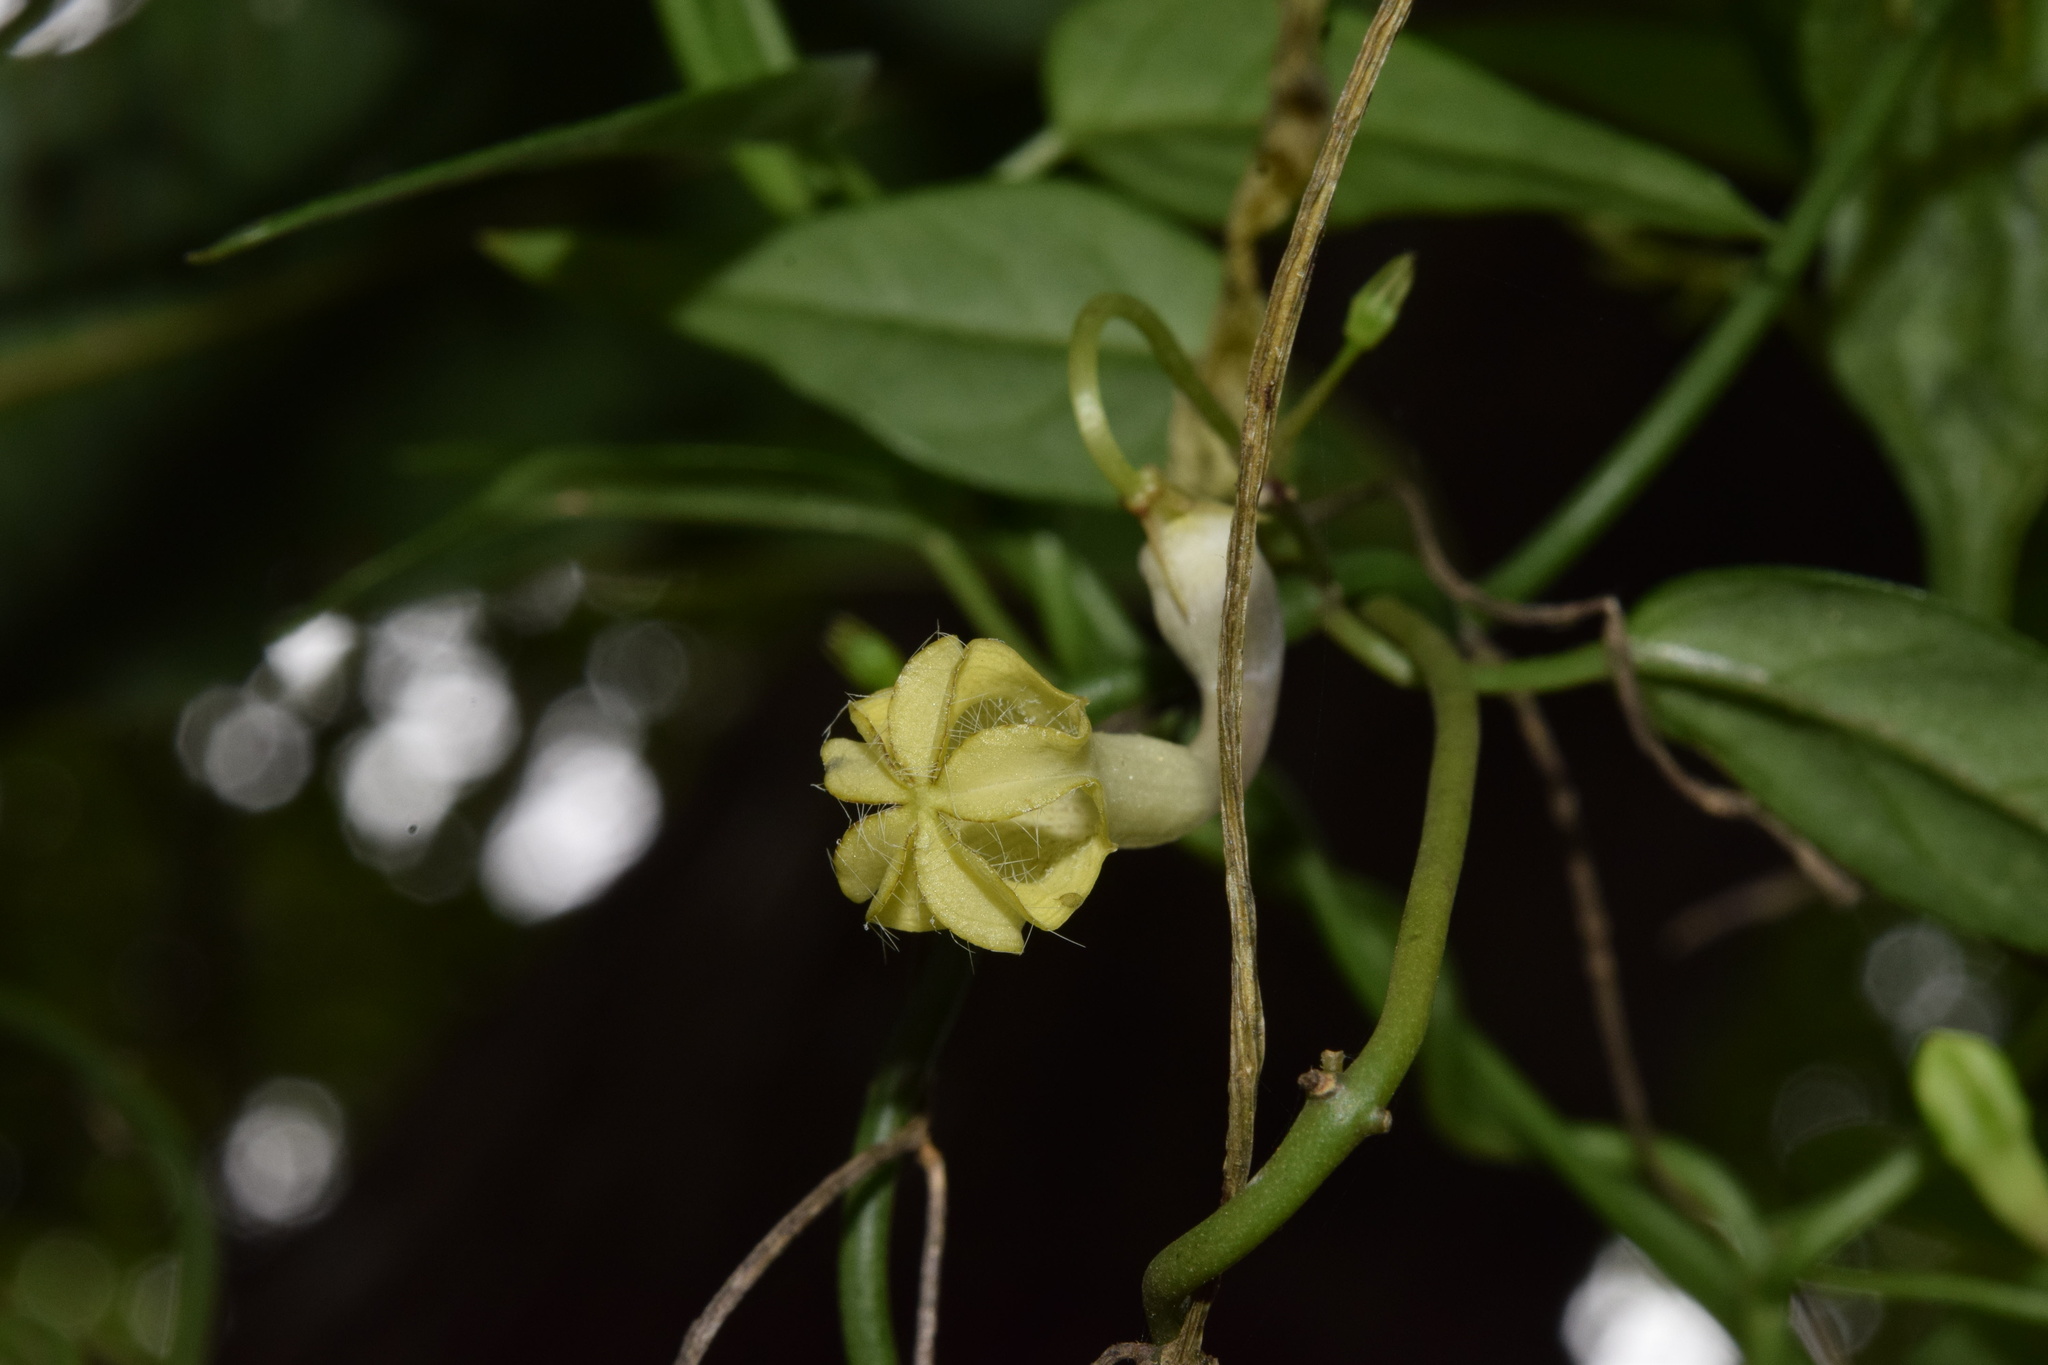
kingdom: Plantae
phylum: Tracheophyta
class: Magnoliopsida
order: Gentianales
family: Apocynaceae
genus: Ceropegia
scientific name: Ceropegia brachyceras
